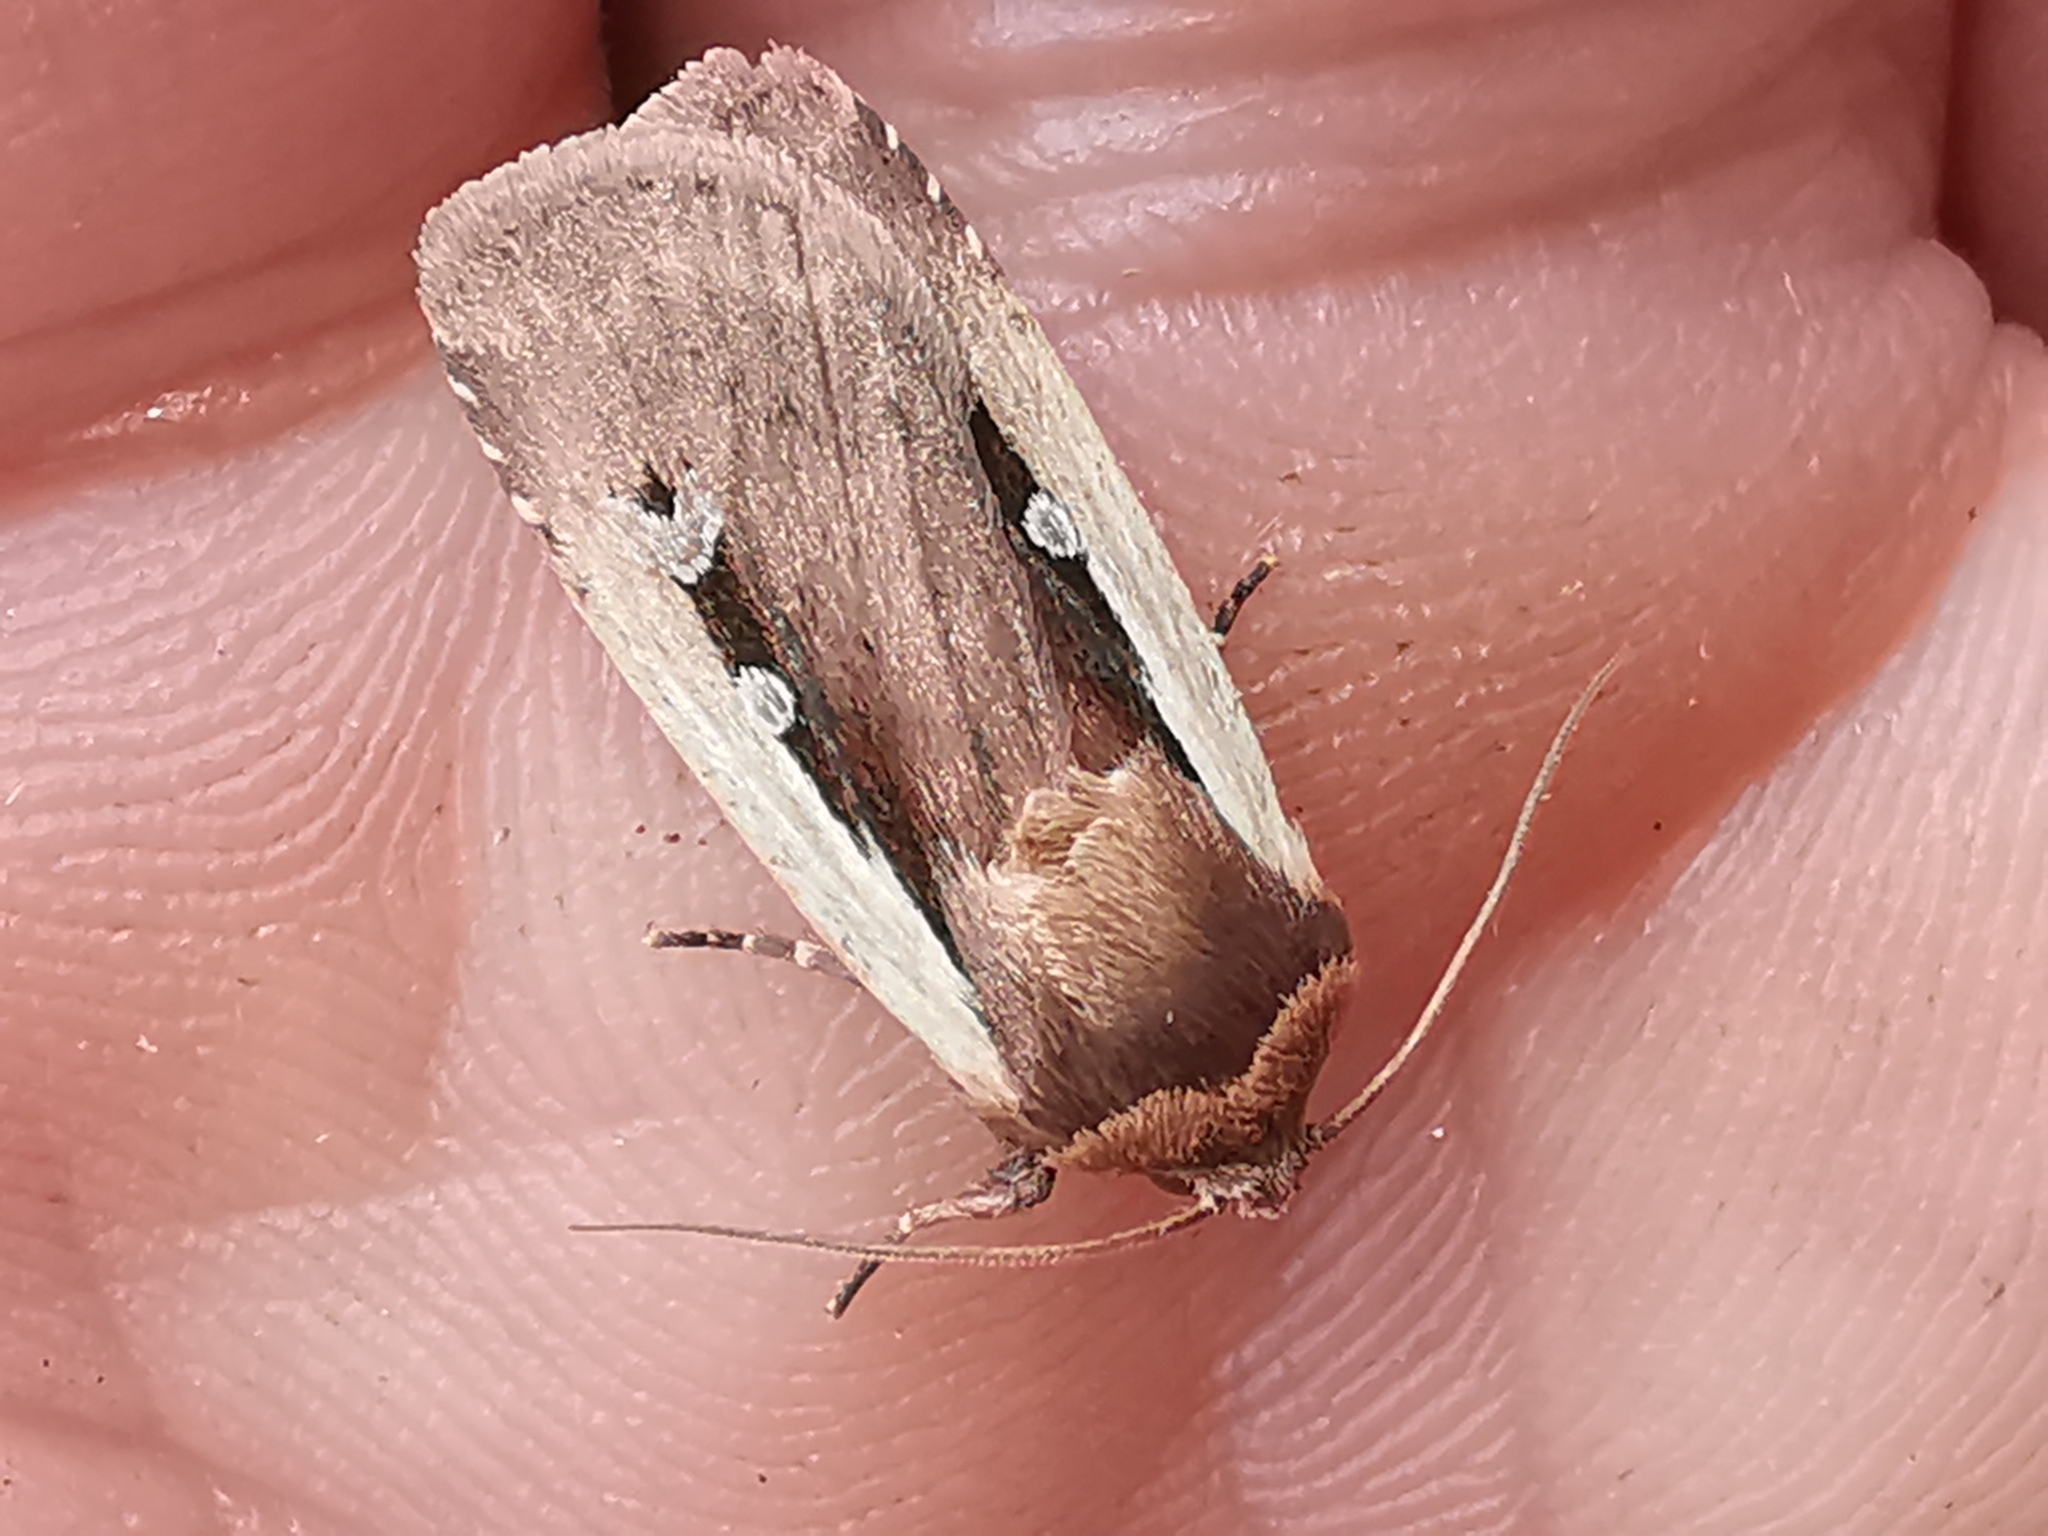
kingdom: Animalia
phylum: Arthropoda
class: Insecta
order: Lepidoptera
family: Noctuidae
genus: Ochropleura
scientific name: Ochropleura plecta
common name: Flame shoulder
